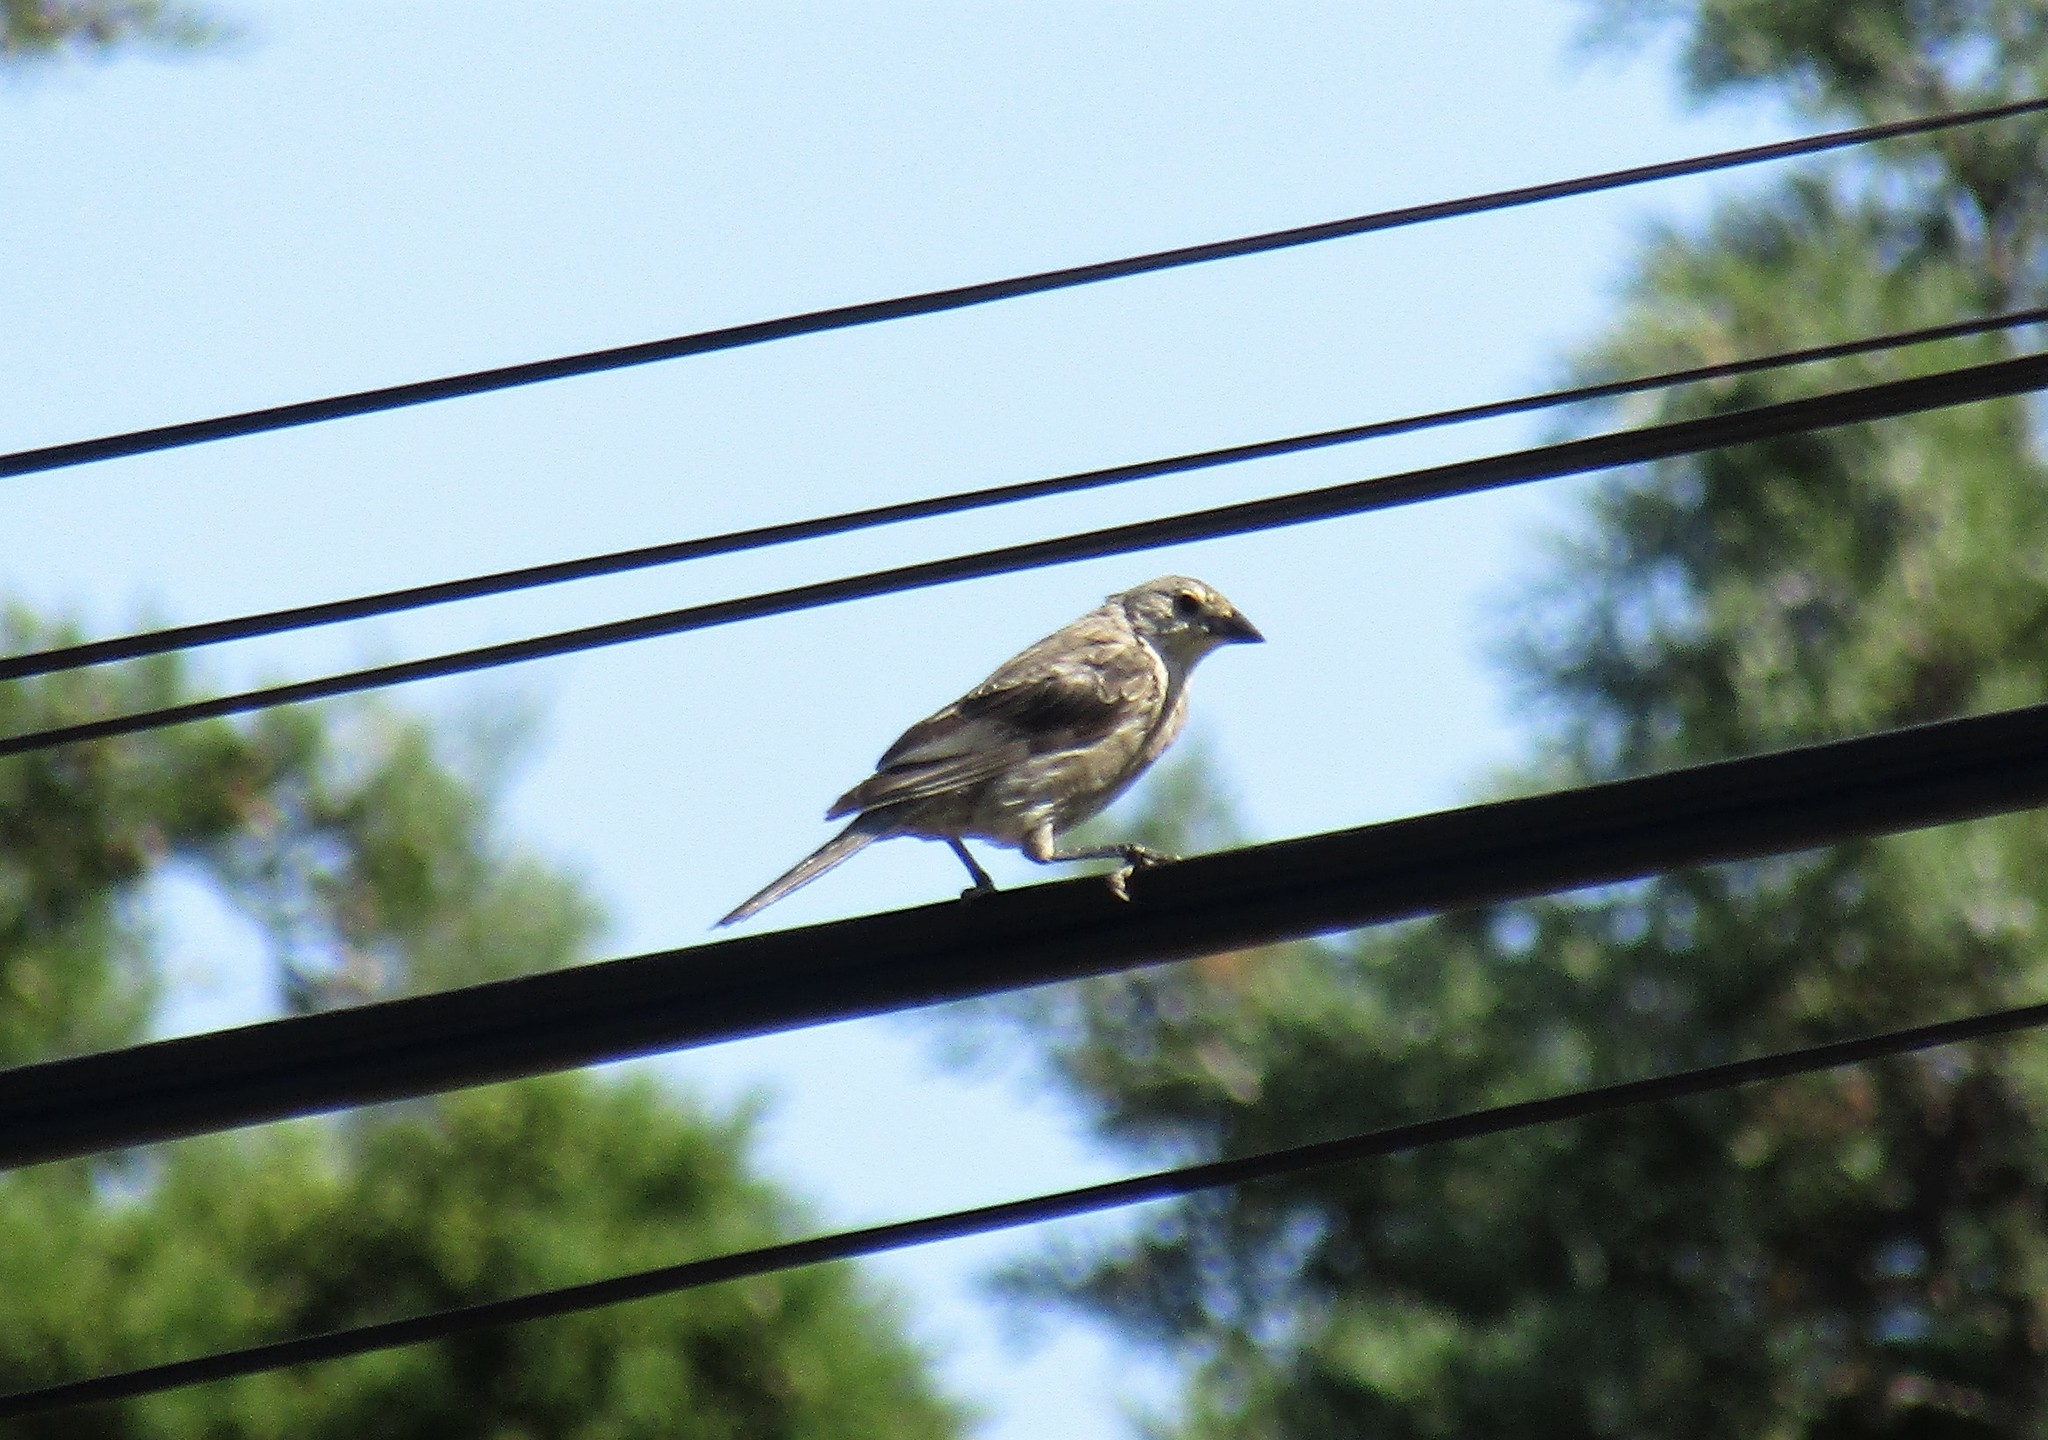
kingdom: Animalia
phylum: Chordata
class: Aves
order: Passeriformes
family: Icteridae
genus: Molothrus
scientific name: Molothrus bonariensis
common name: Shiny cowbird
